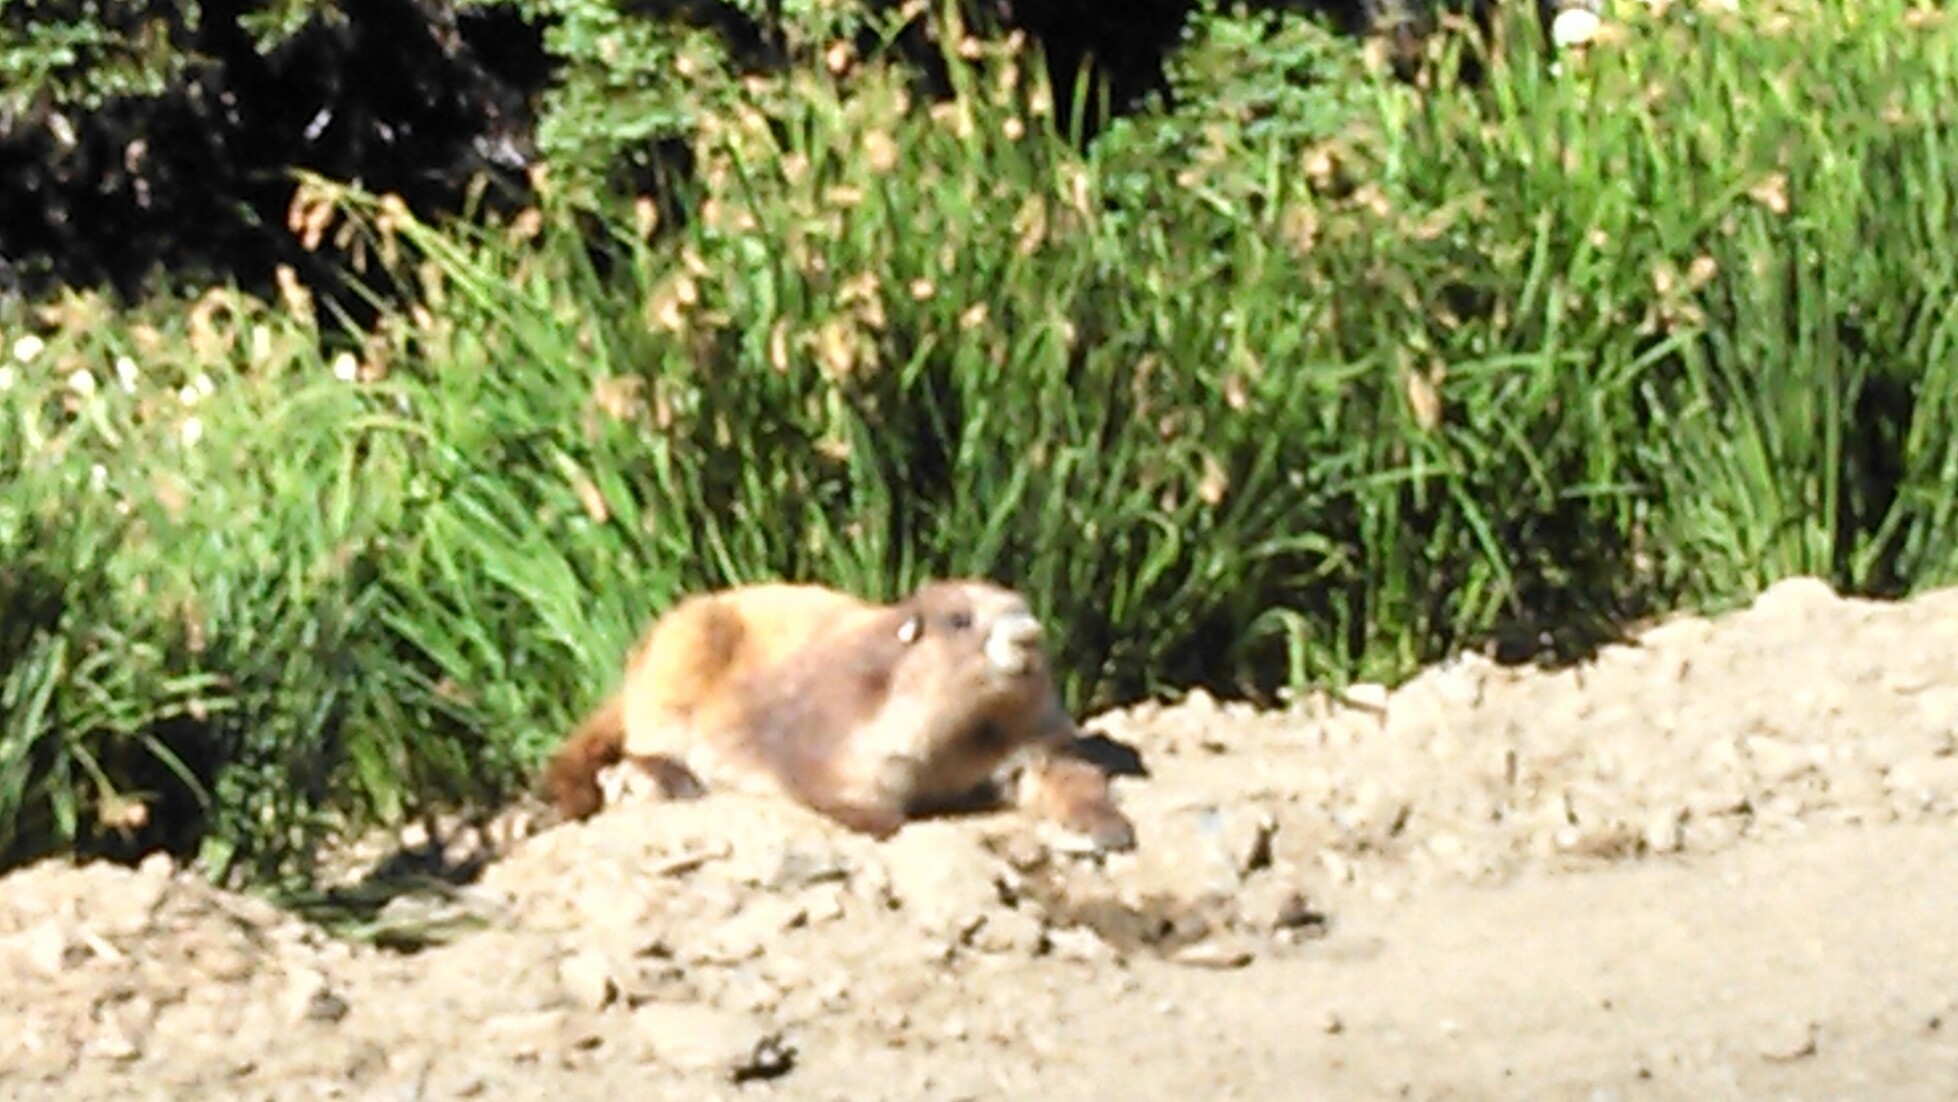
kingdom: Animalia
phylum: Chordata
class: Mammalia
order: Rodentia
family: Sciuridae
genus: Marmota
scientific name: Marmota olympus
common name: Olympic marmot
